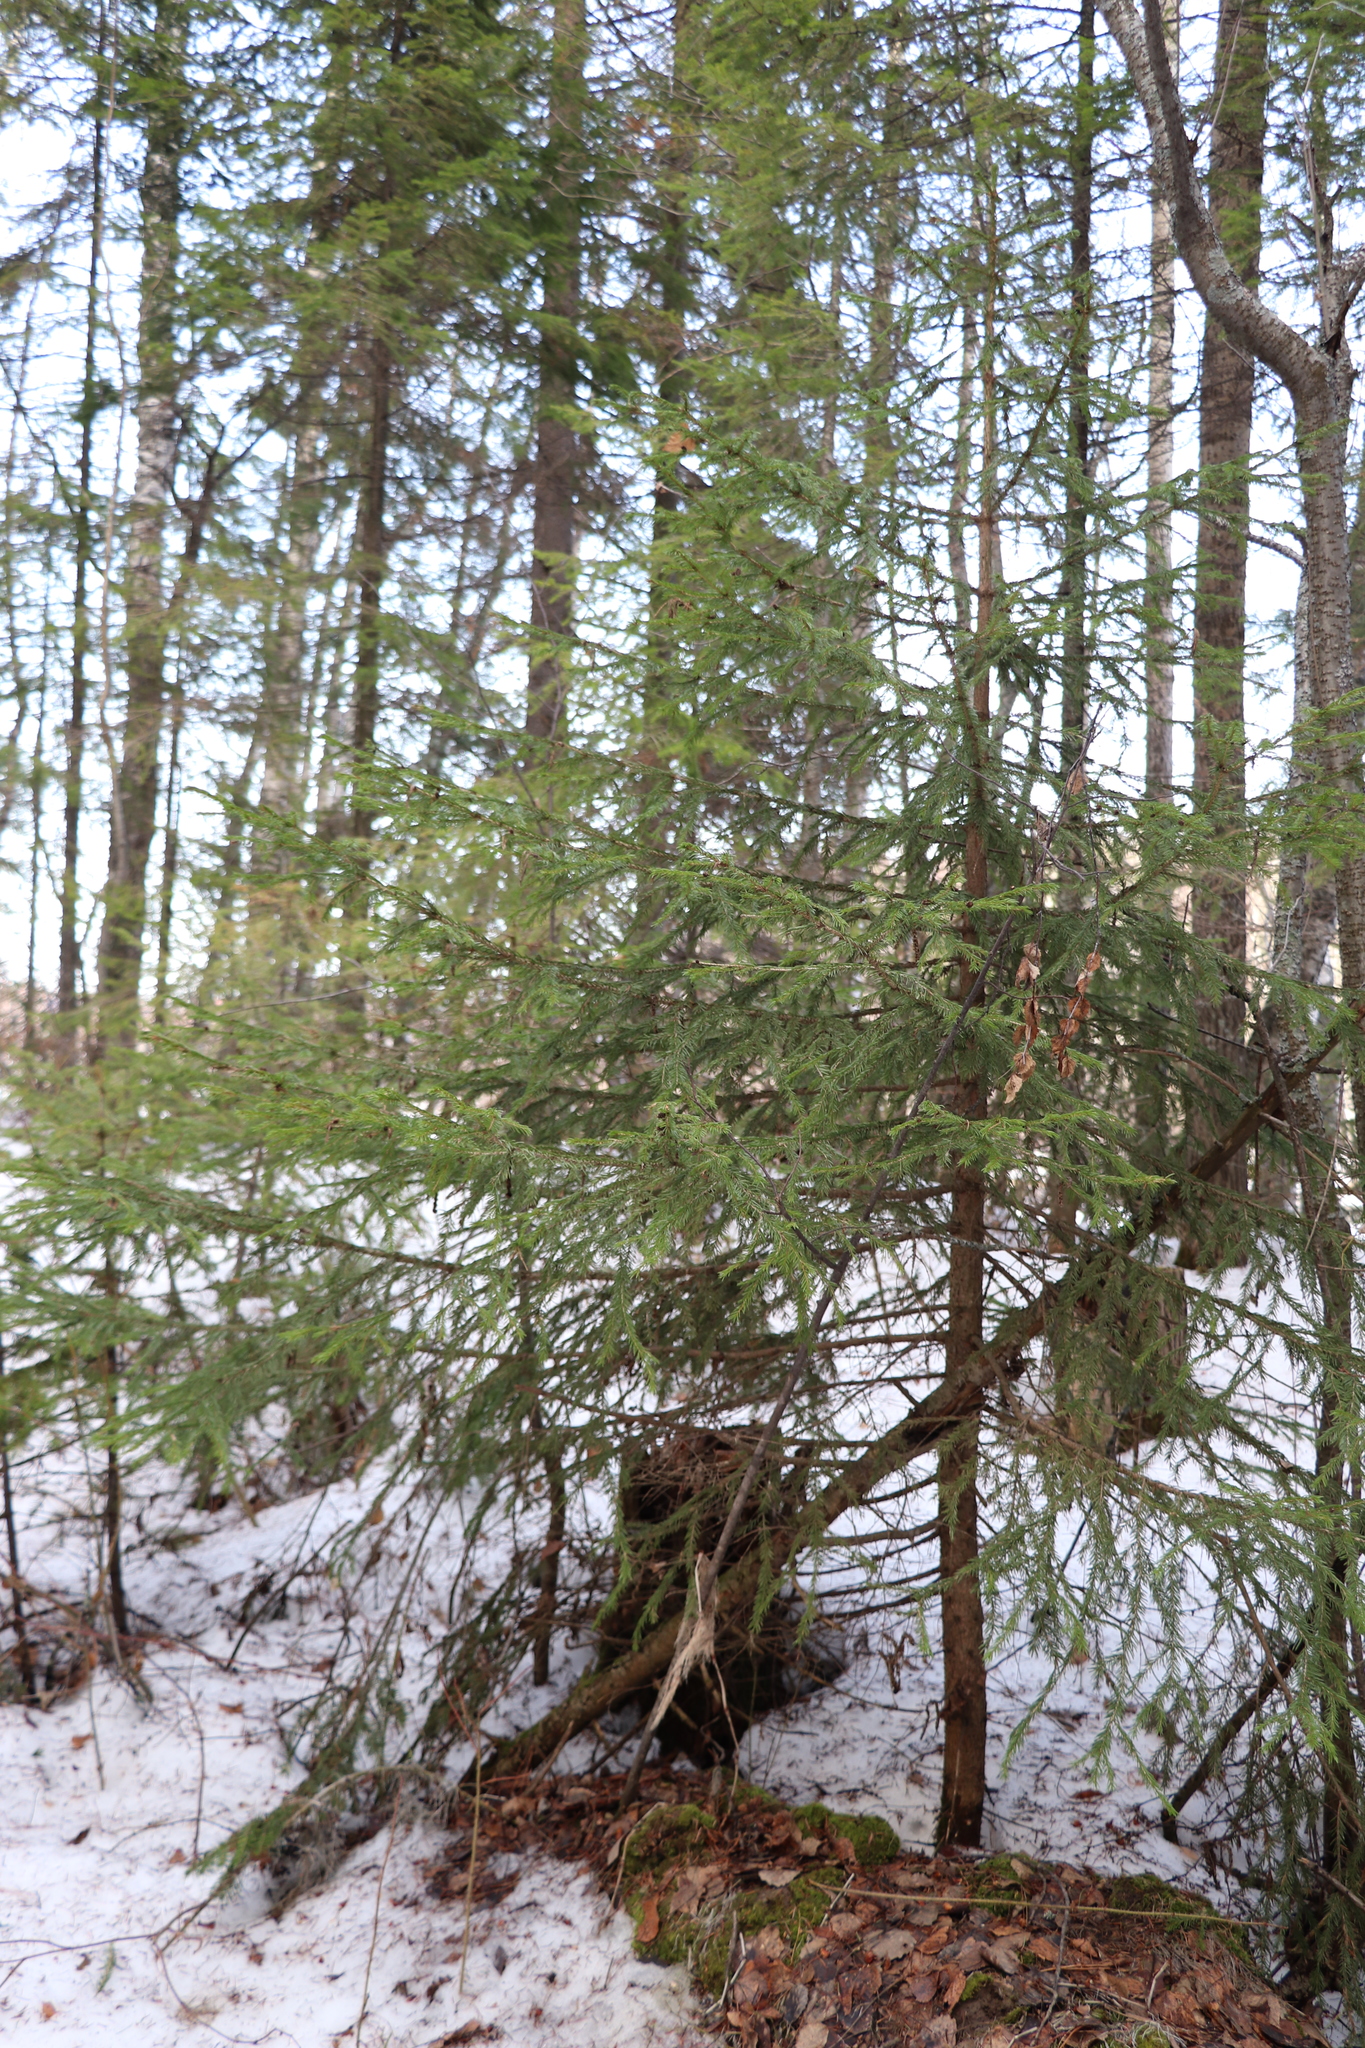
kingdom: Plantae
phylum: Tracheophyta
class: Pinopsida
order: Pinales
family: Pinaceae
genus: Picea
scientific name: Picea abies
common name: Norway spruce
